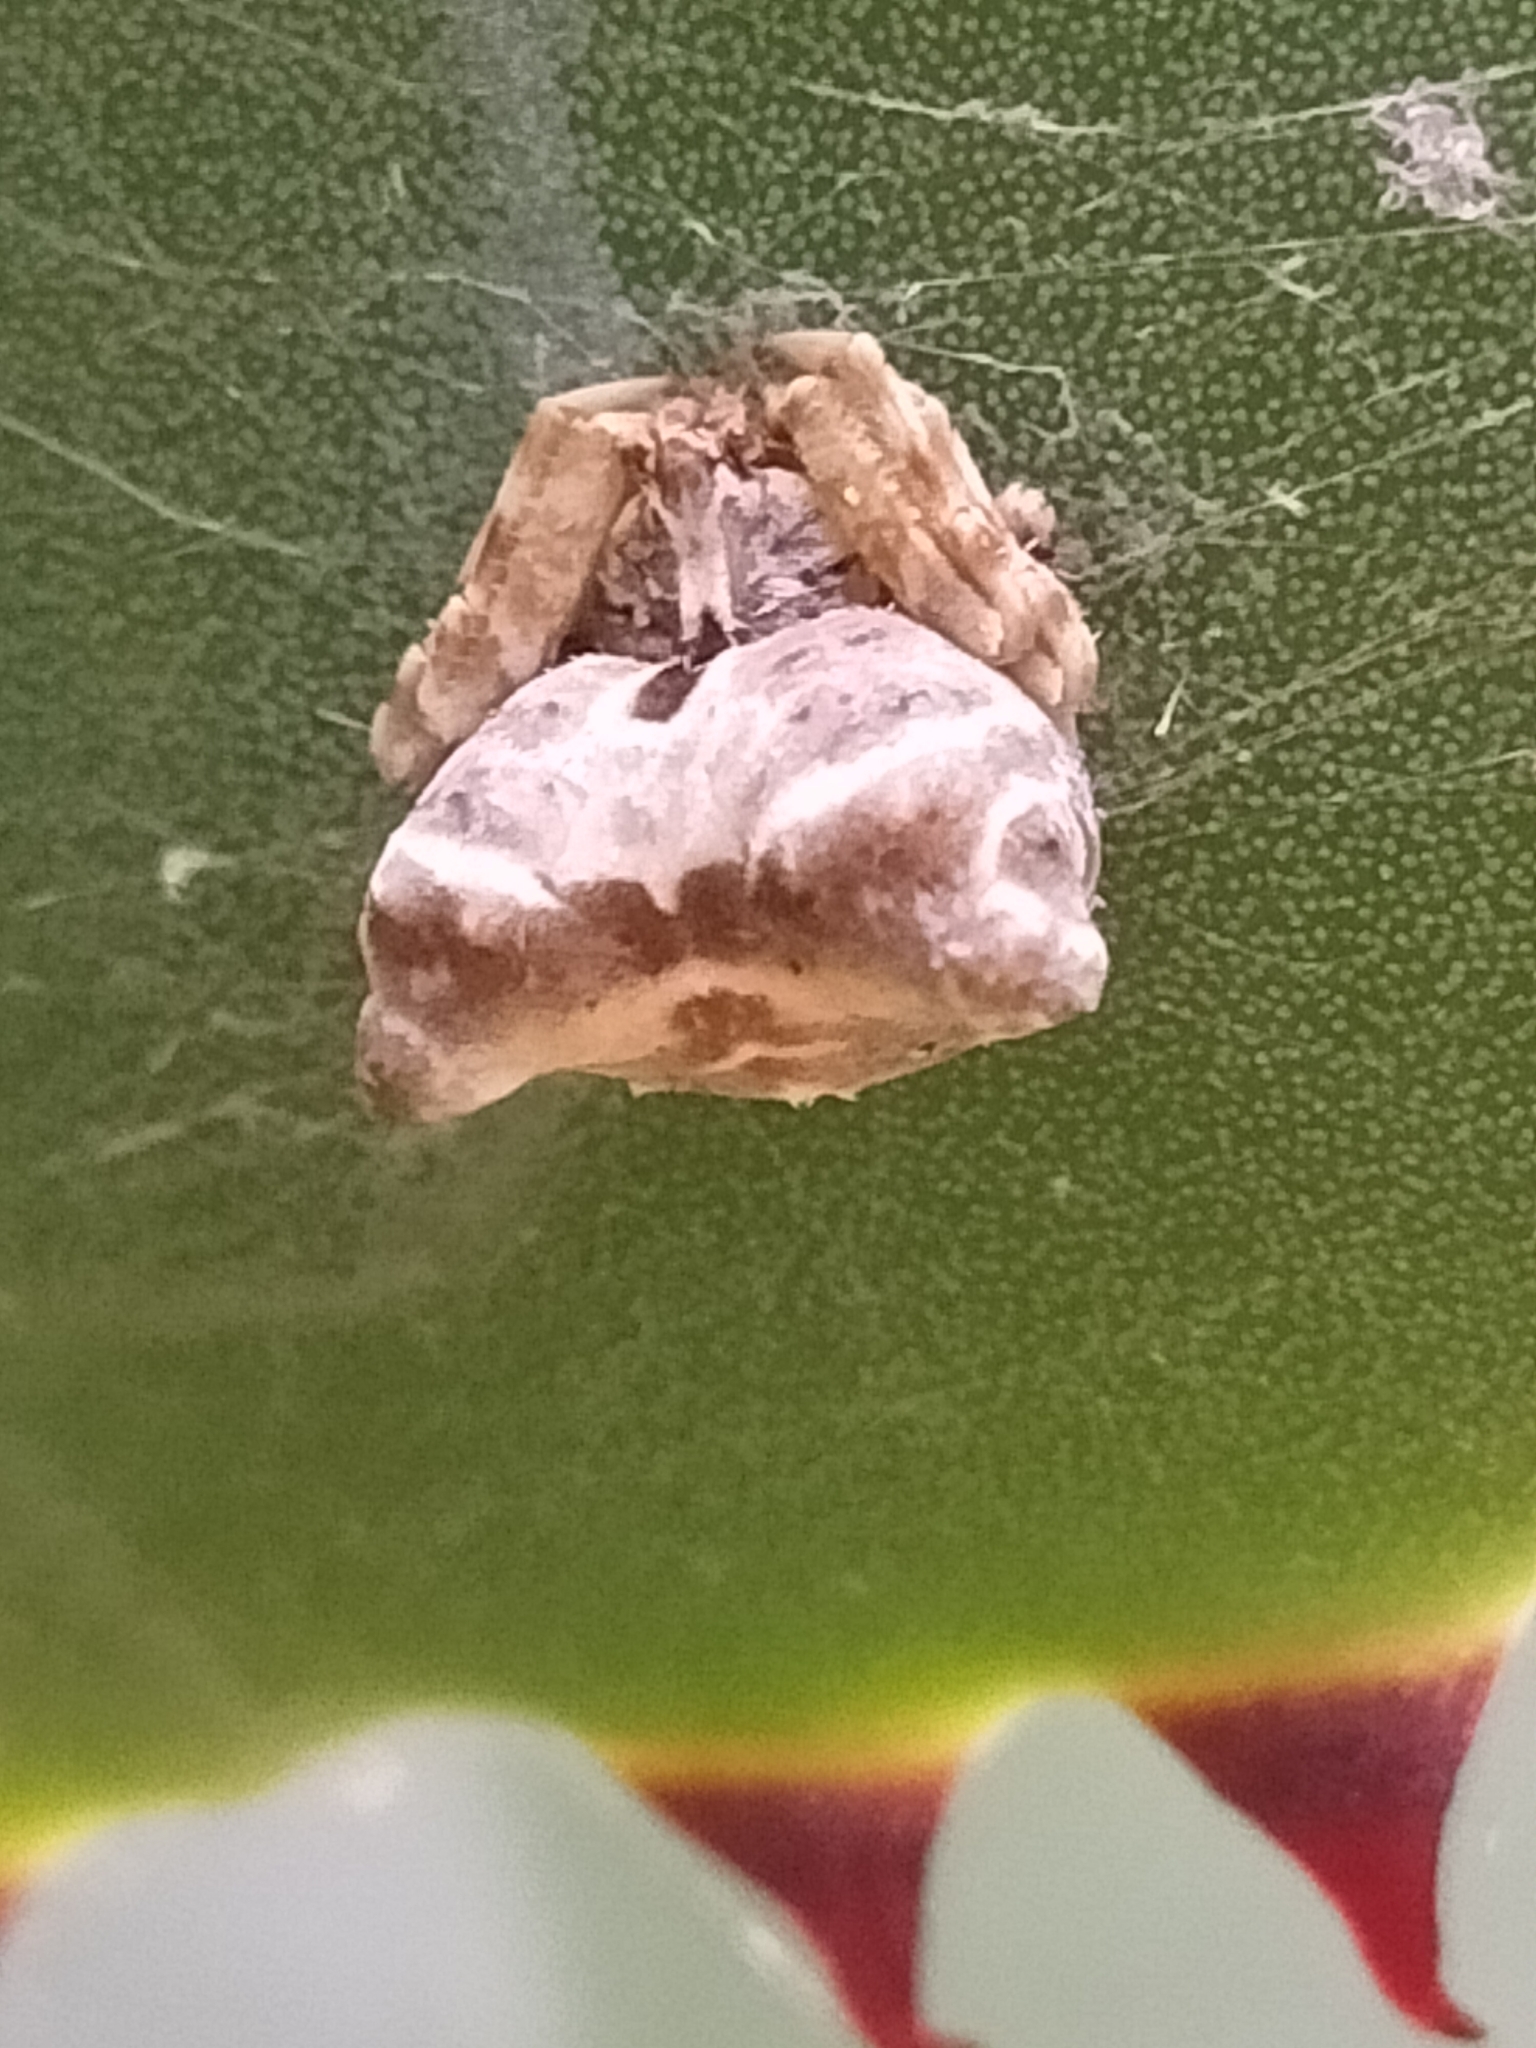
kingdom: Animalia
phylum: Arthropoda
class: Arachnida
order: Araneae
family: Araneidae
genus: Celaenia
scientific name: Celaenia olivacea
